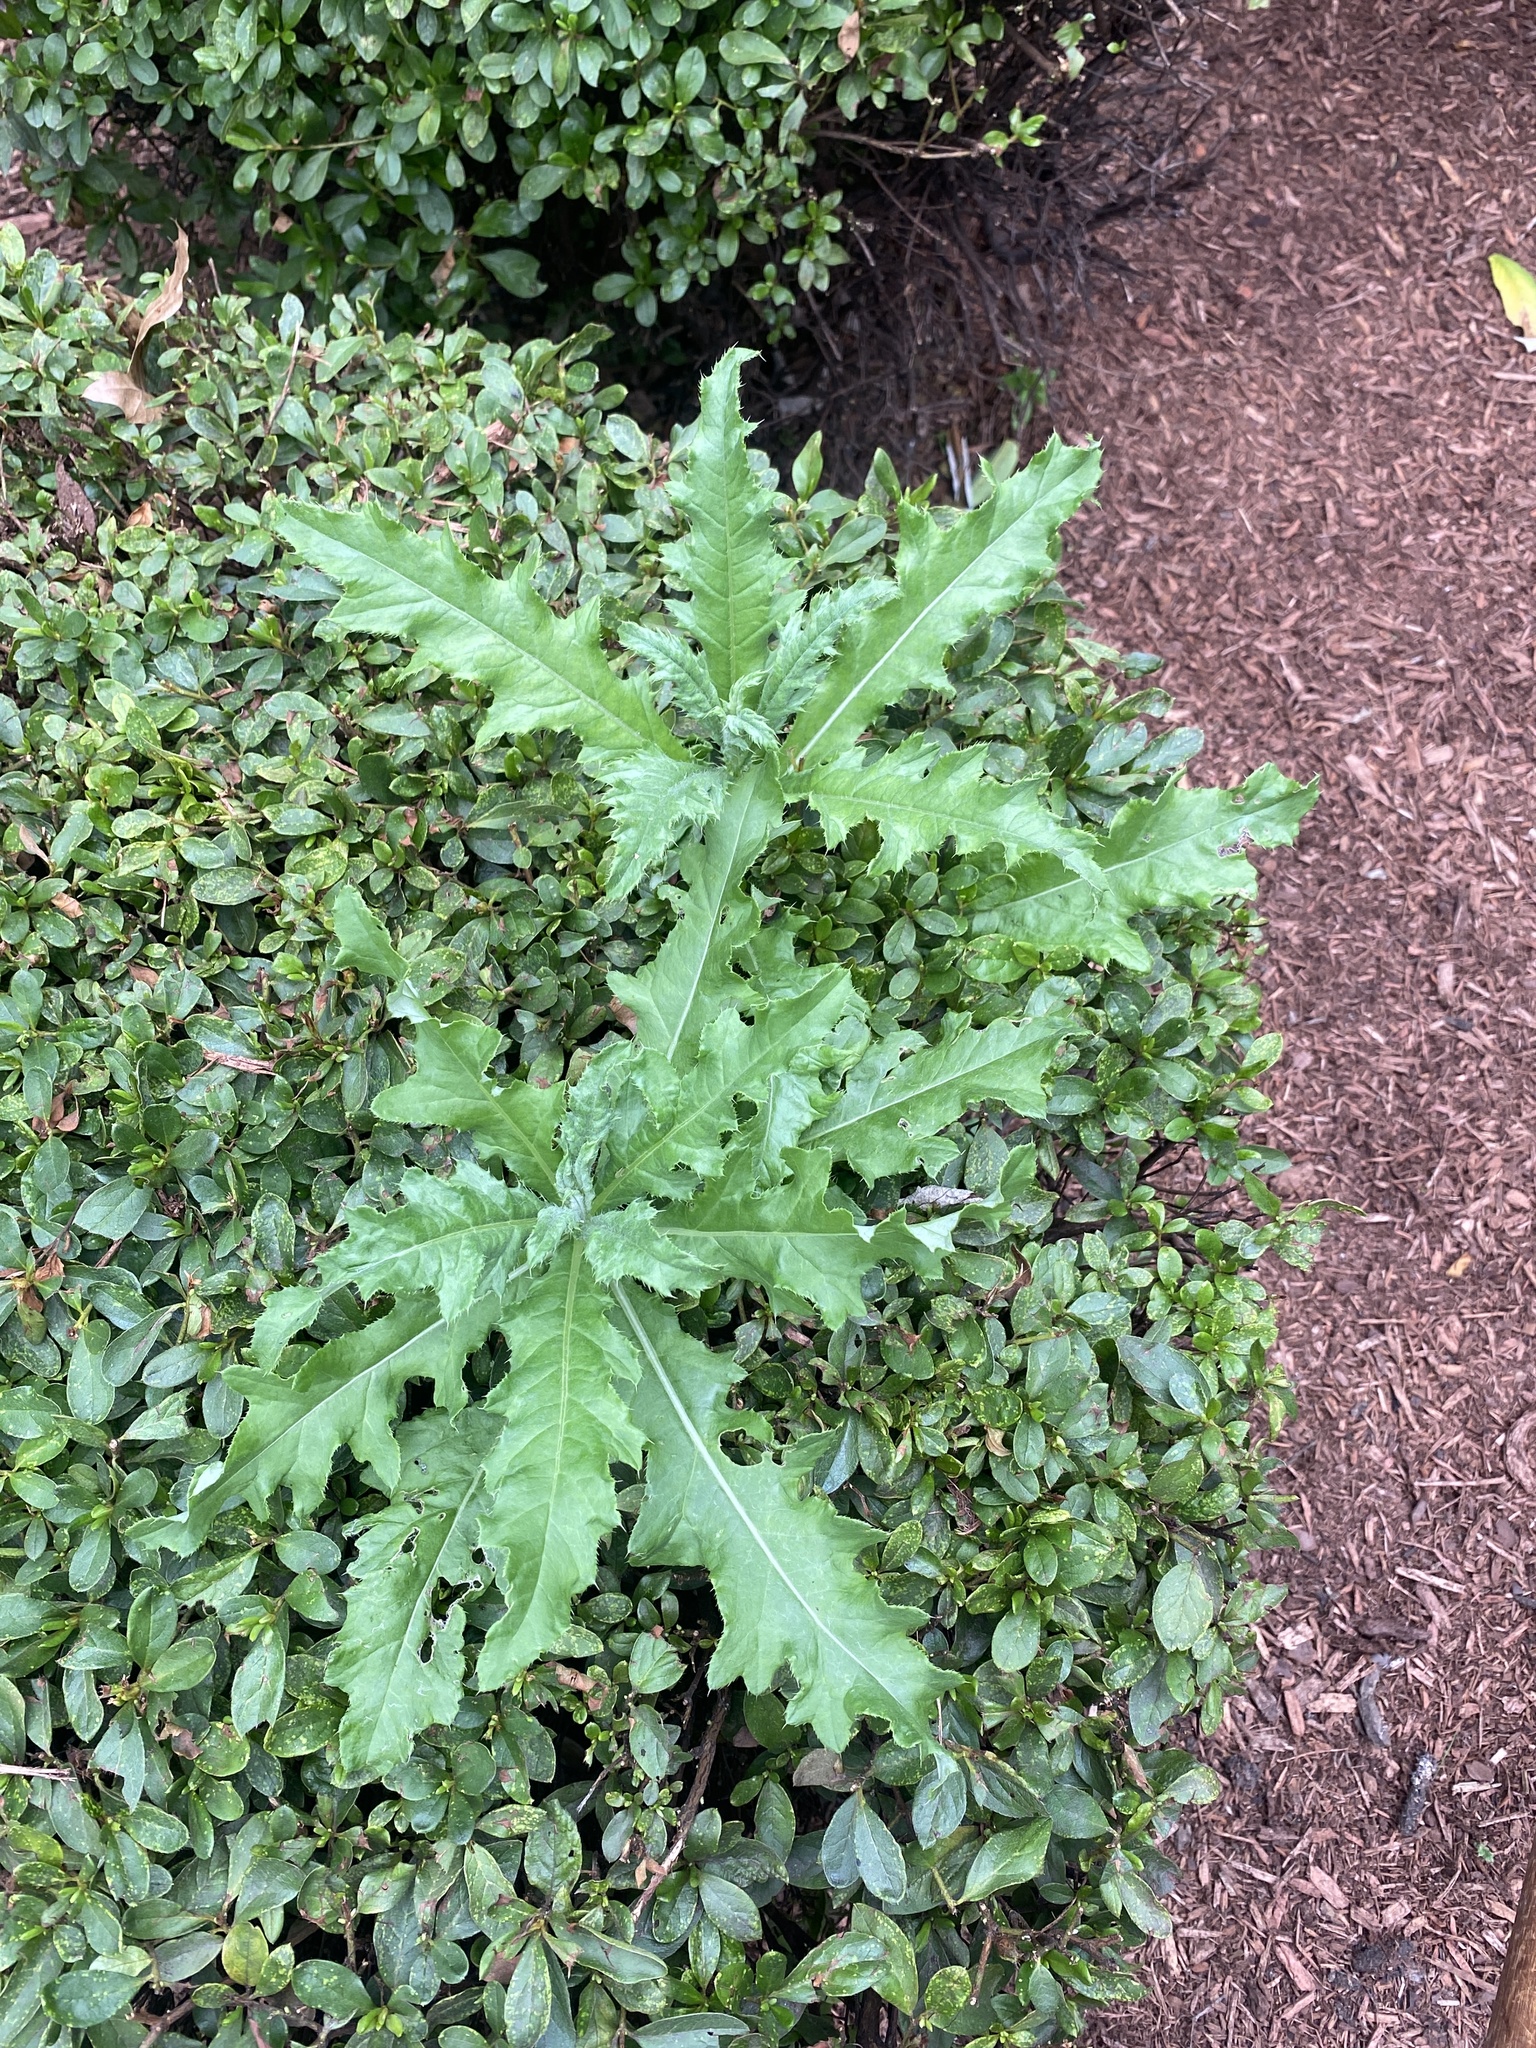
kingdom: Plantae
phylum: Tracheophyta
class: Magnoliopsida
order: Asterales
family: Asteraceae
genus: Cirsium
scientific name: Cirsium arvense
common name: Creeping thistle
